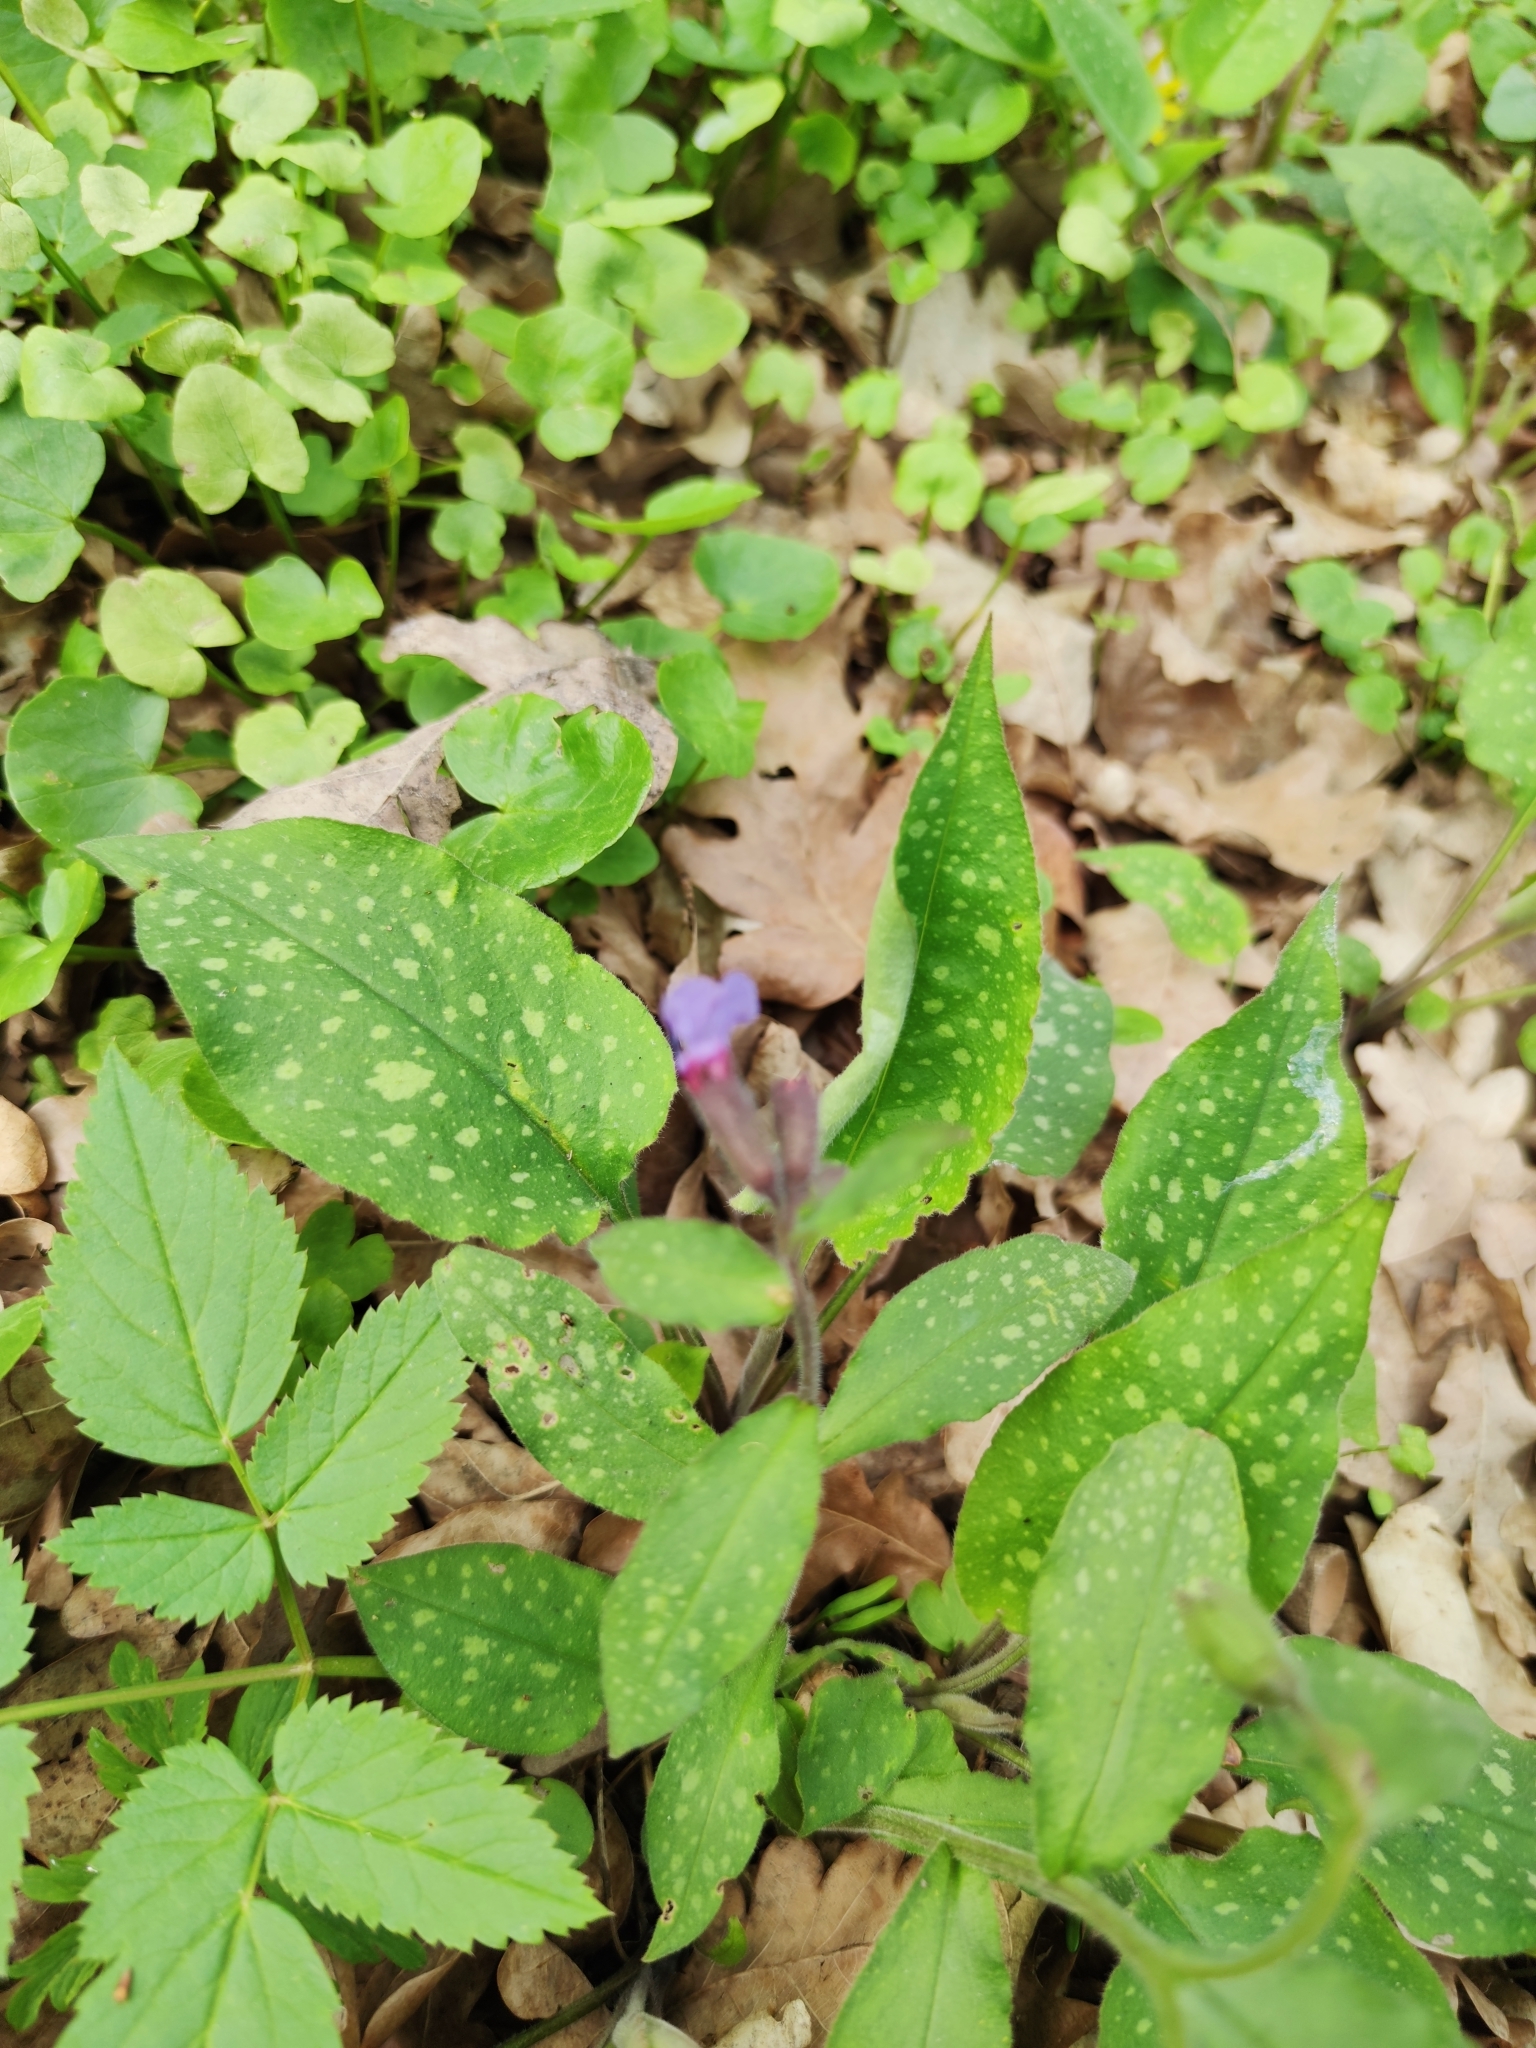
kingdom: Plantae
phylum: Tracheophyta
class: Magnoliopsida
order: Boraginales
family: Boraginaceae
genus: Pulmonaria
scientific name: Pulmonaria officinalis
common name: Lungwort
